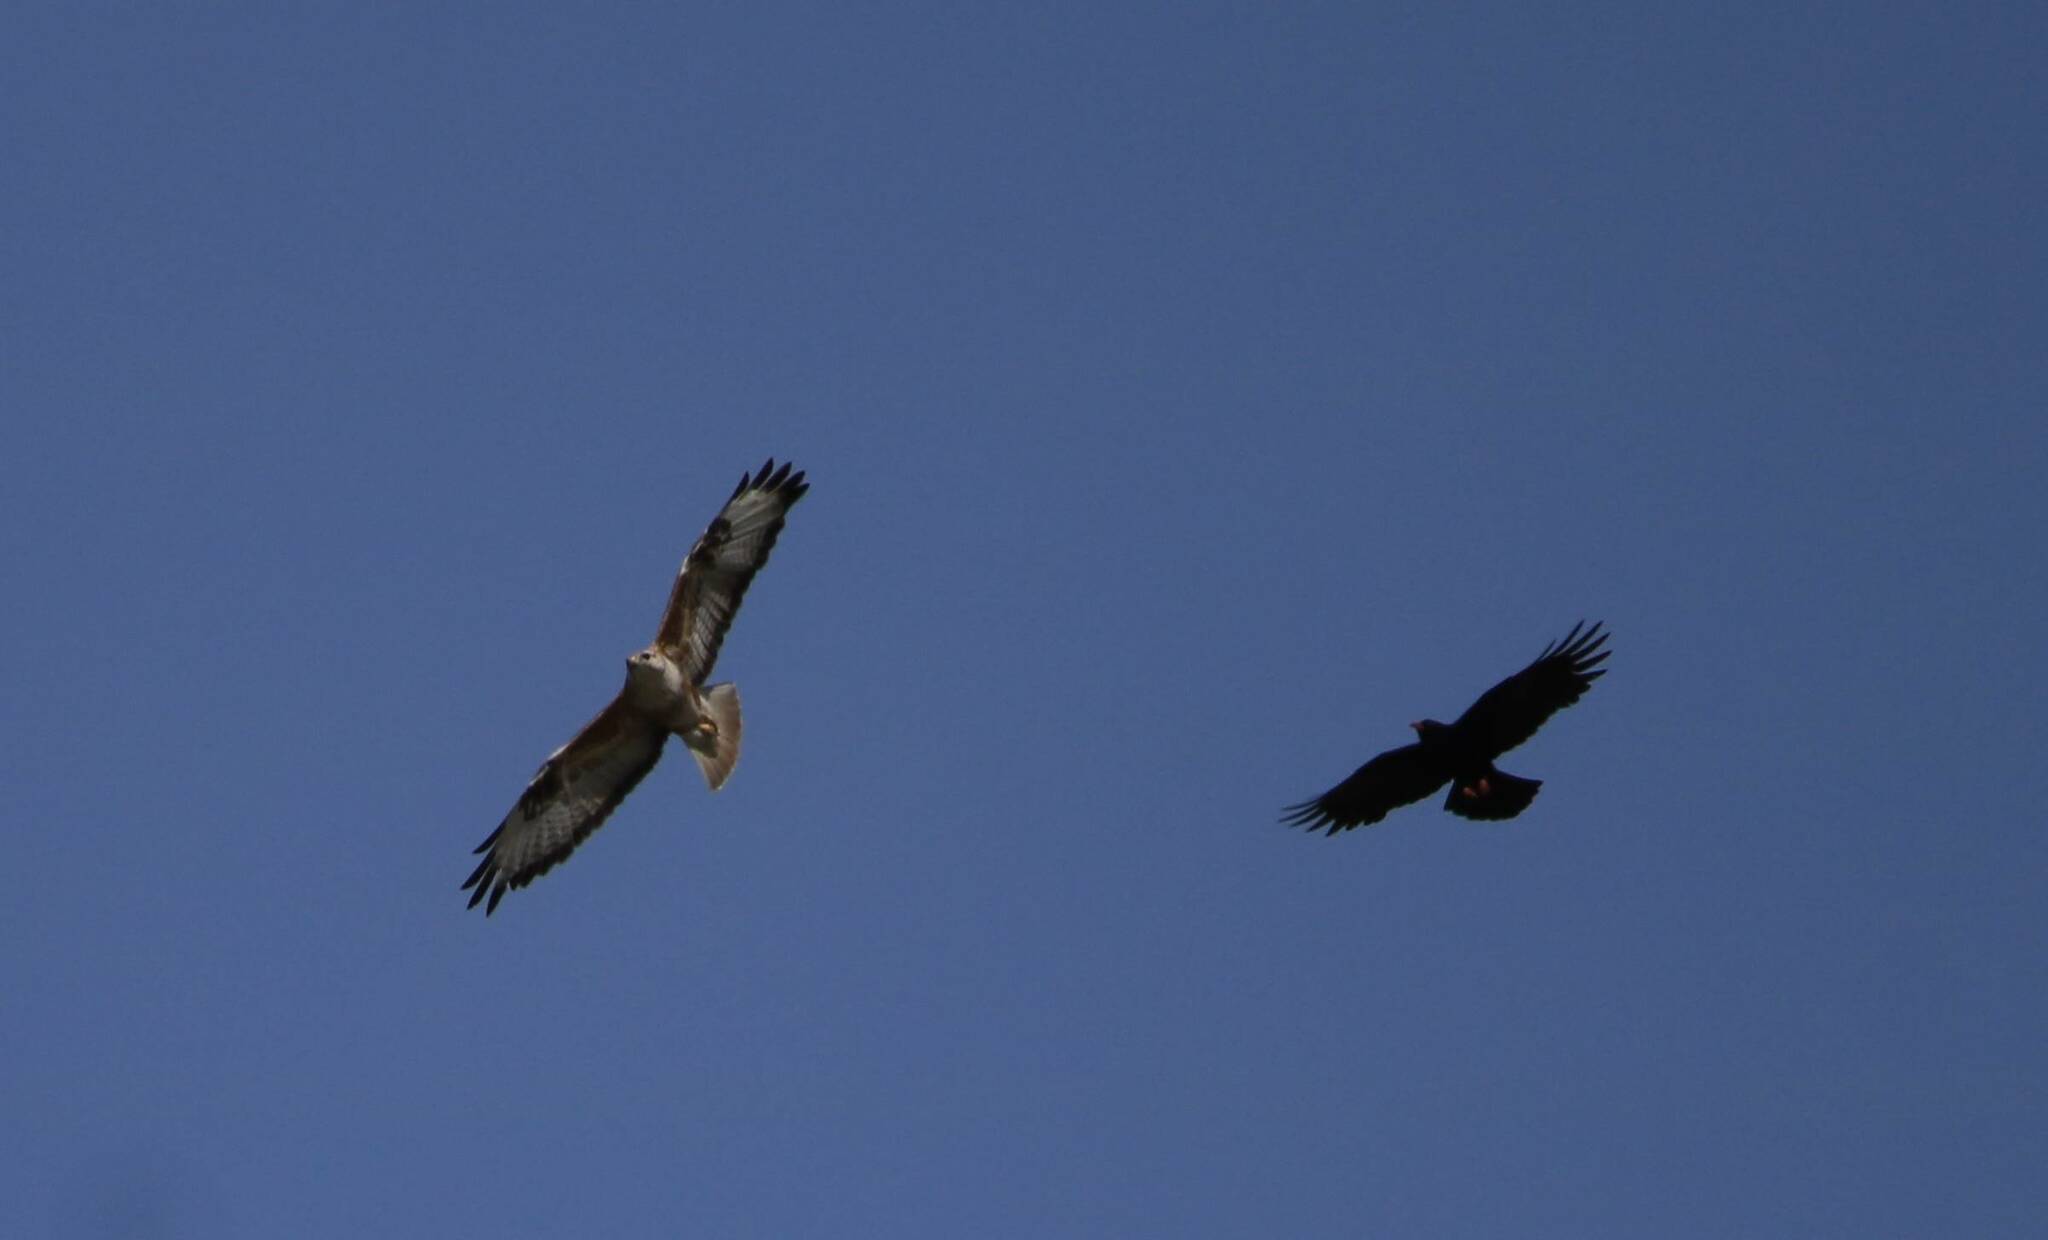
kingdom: Animalia
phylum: Chordata
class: Aves
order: Accipitriformes
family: Accipitridae
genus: Buteo
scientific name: Buteo buteo
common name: Common buzzard
